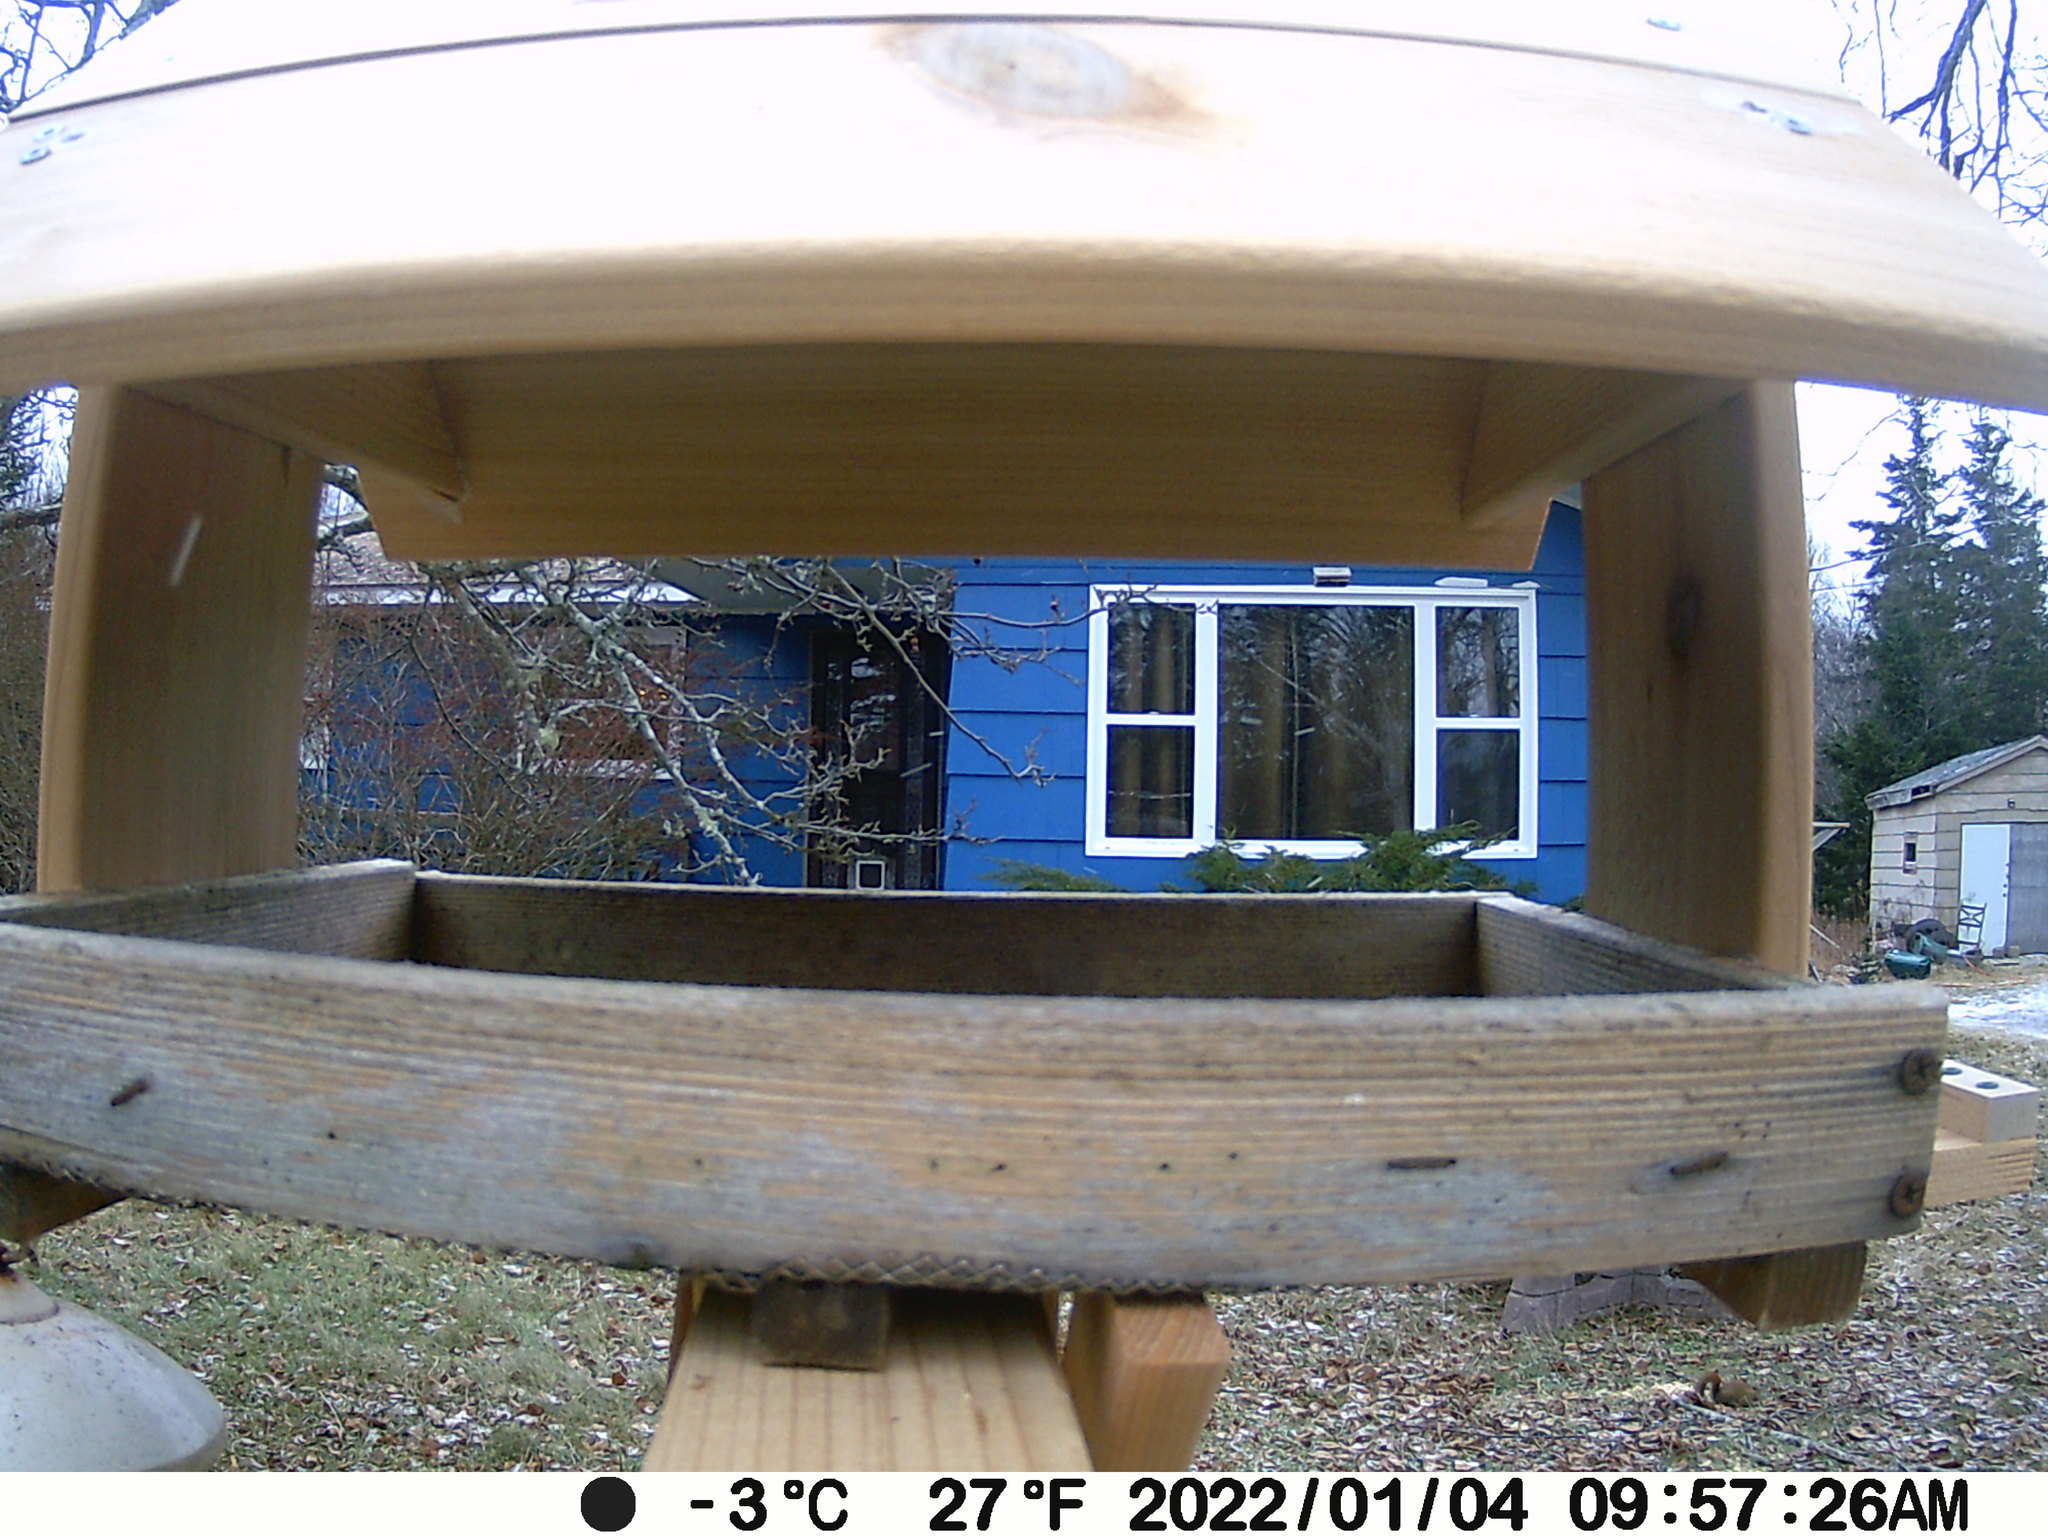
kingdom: Animalia
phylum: Chordata
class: Mammalia
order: Rodentia
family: Sciuridae
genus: Tamiasciurus
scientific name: Tamiasciurus hudsonicus
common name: Red squirrel
